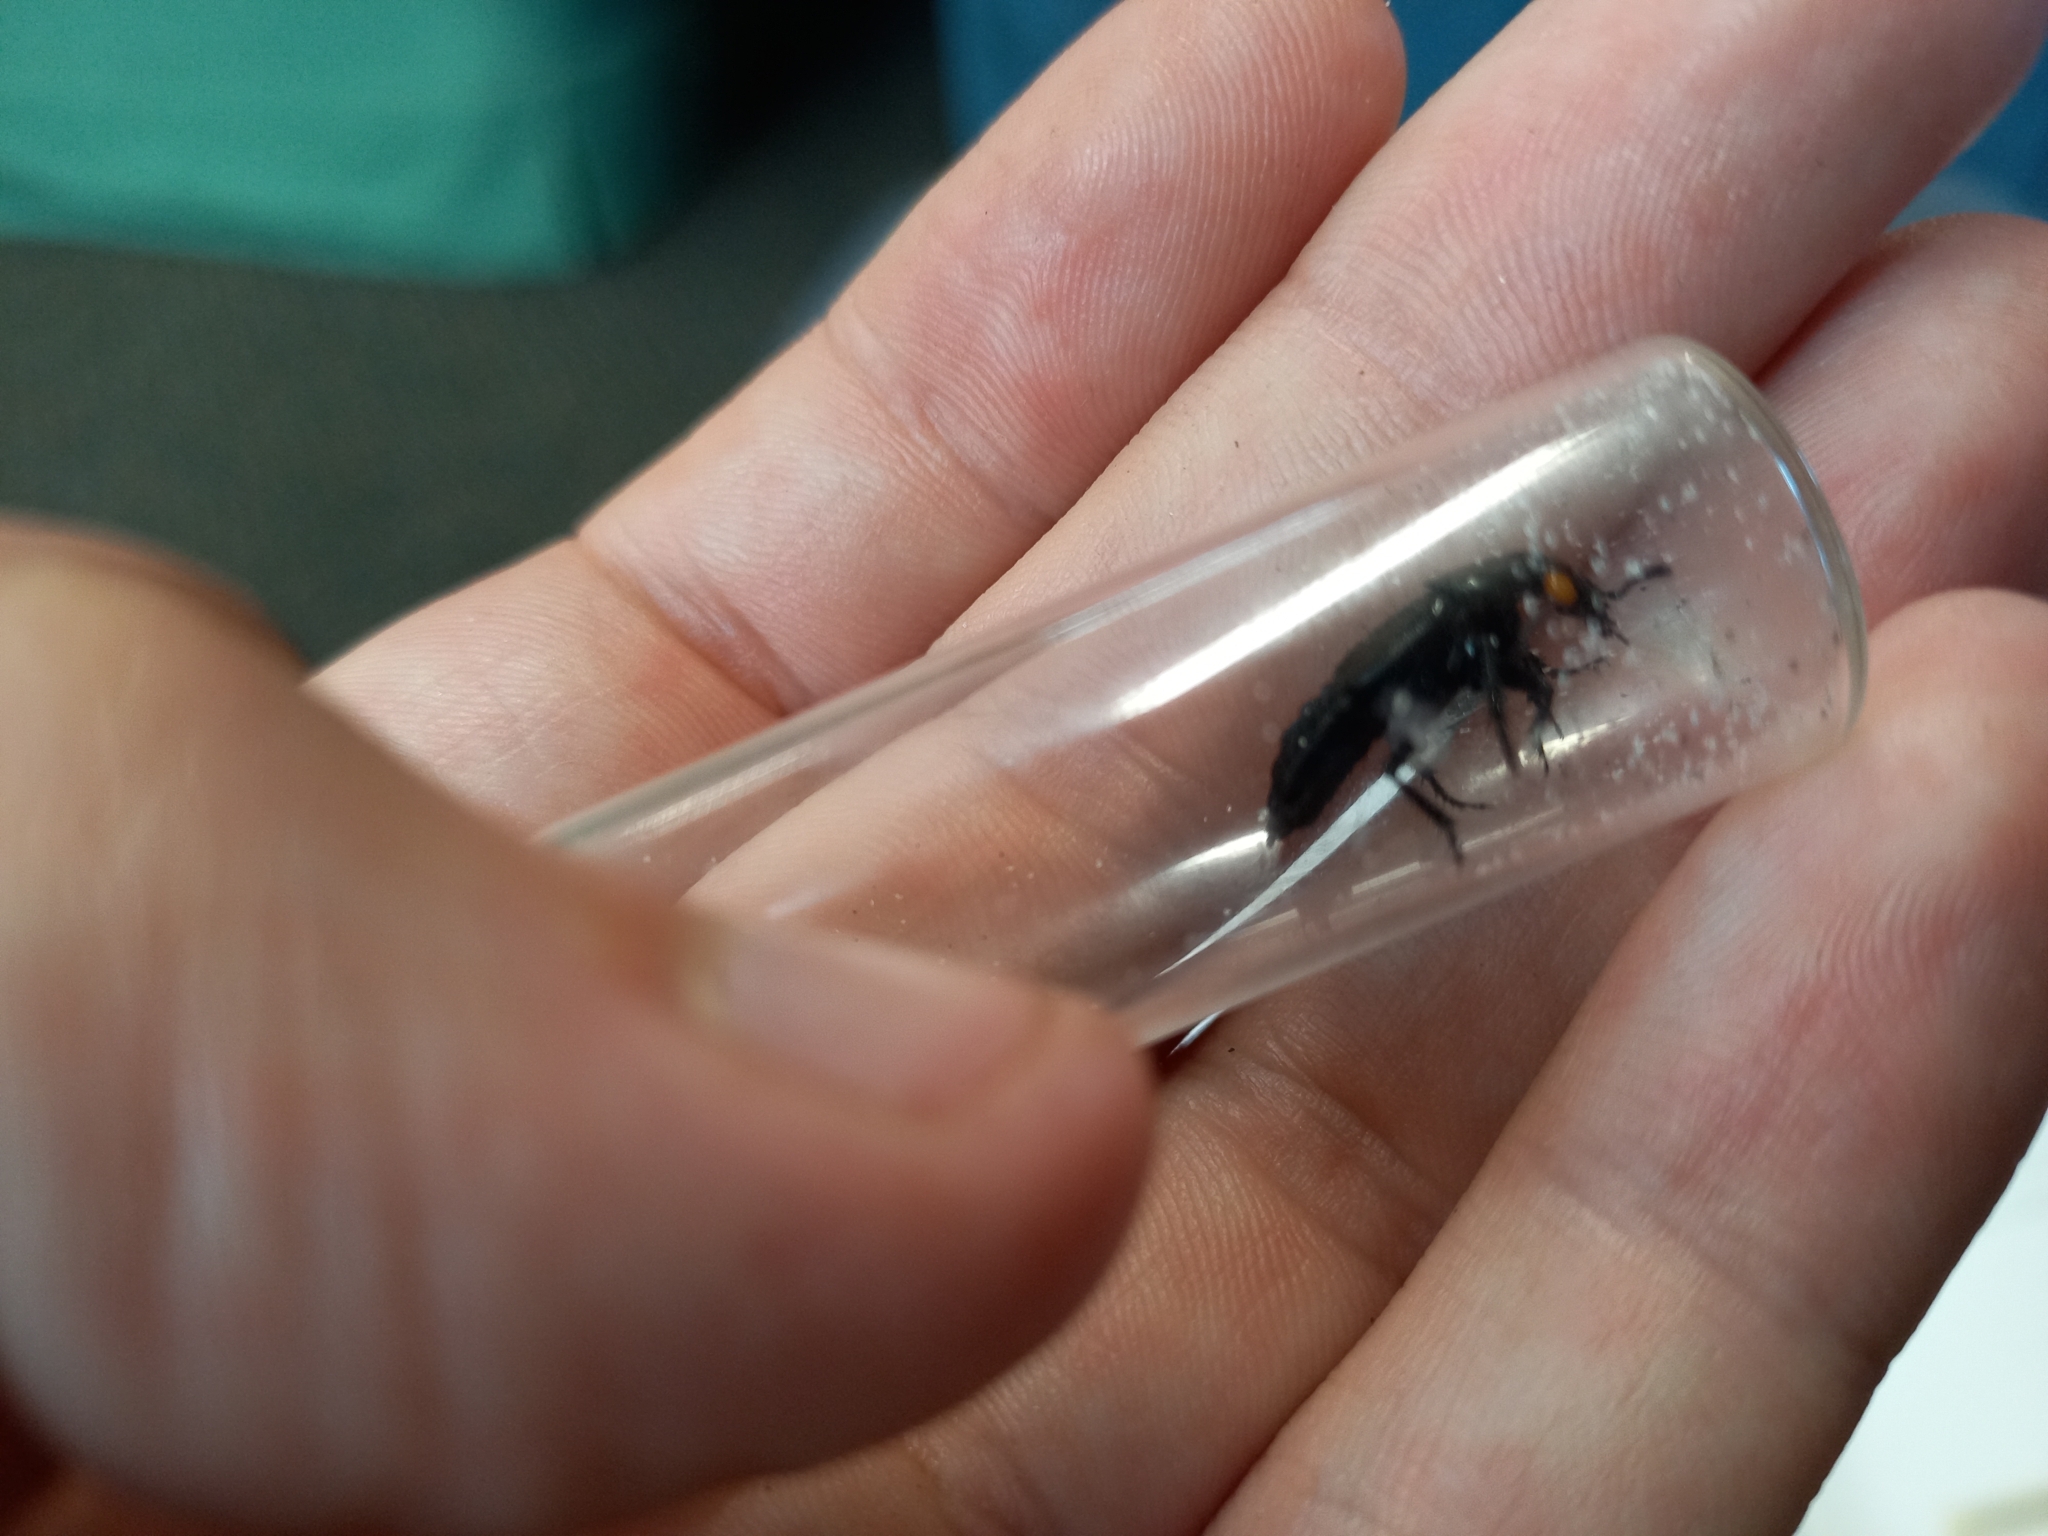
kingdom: Animalia
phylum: Arthropoda
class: Insecta
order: Coleoptera
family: Staphylinidae
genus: Creophilus
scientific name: Creophilus oculatus
